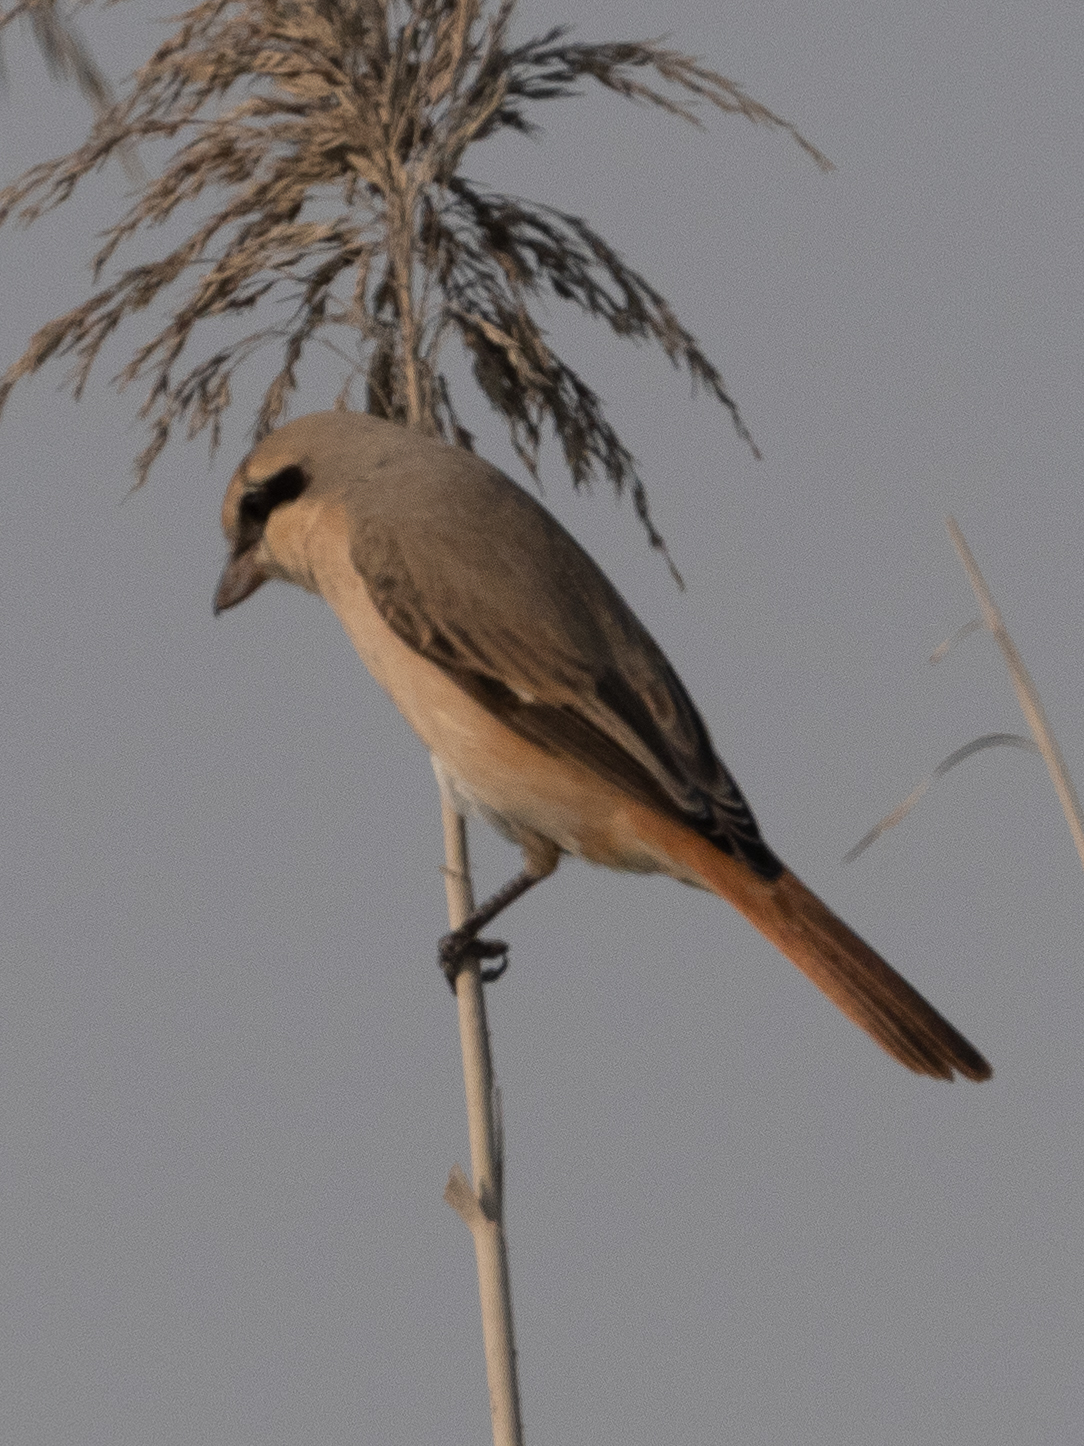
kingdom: Animalia
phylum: Chordata
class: Aves
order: Passeriformes
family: Laniidae
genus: Lanius
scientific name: Lanius isabellinus
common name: Isabelline shrike
